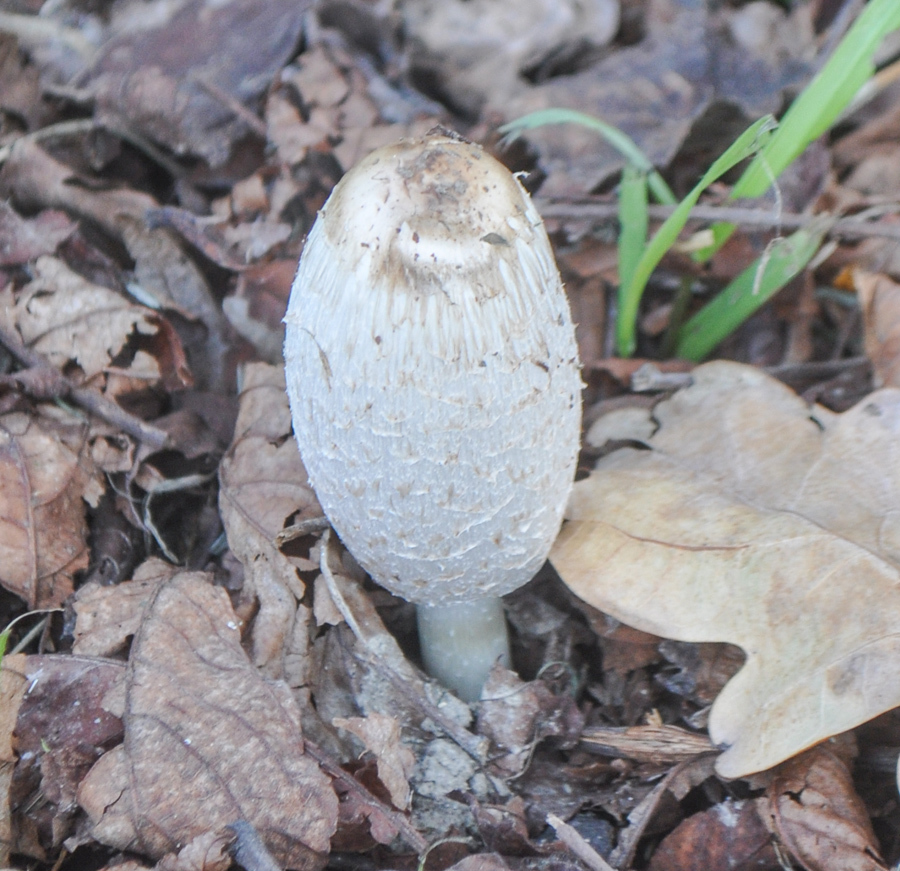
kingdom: Fungi
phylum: Basidiomycota
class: Agaricomycetes
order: Agaricales
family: Agaricaceae
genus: Coprinus
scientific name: Coprinus comatus
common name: Lawyer's wig
